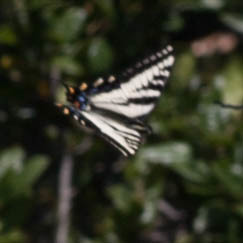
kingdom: Animalia
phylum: Arthropoda
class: Insecta
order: Lepidoptera
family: Papilionidae
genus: Papilio
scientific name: Papilio eurymedon
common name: Pale tiger swallowtail
